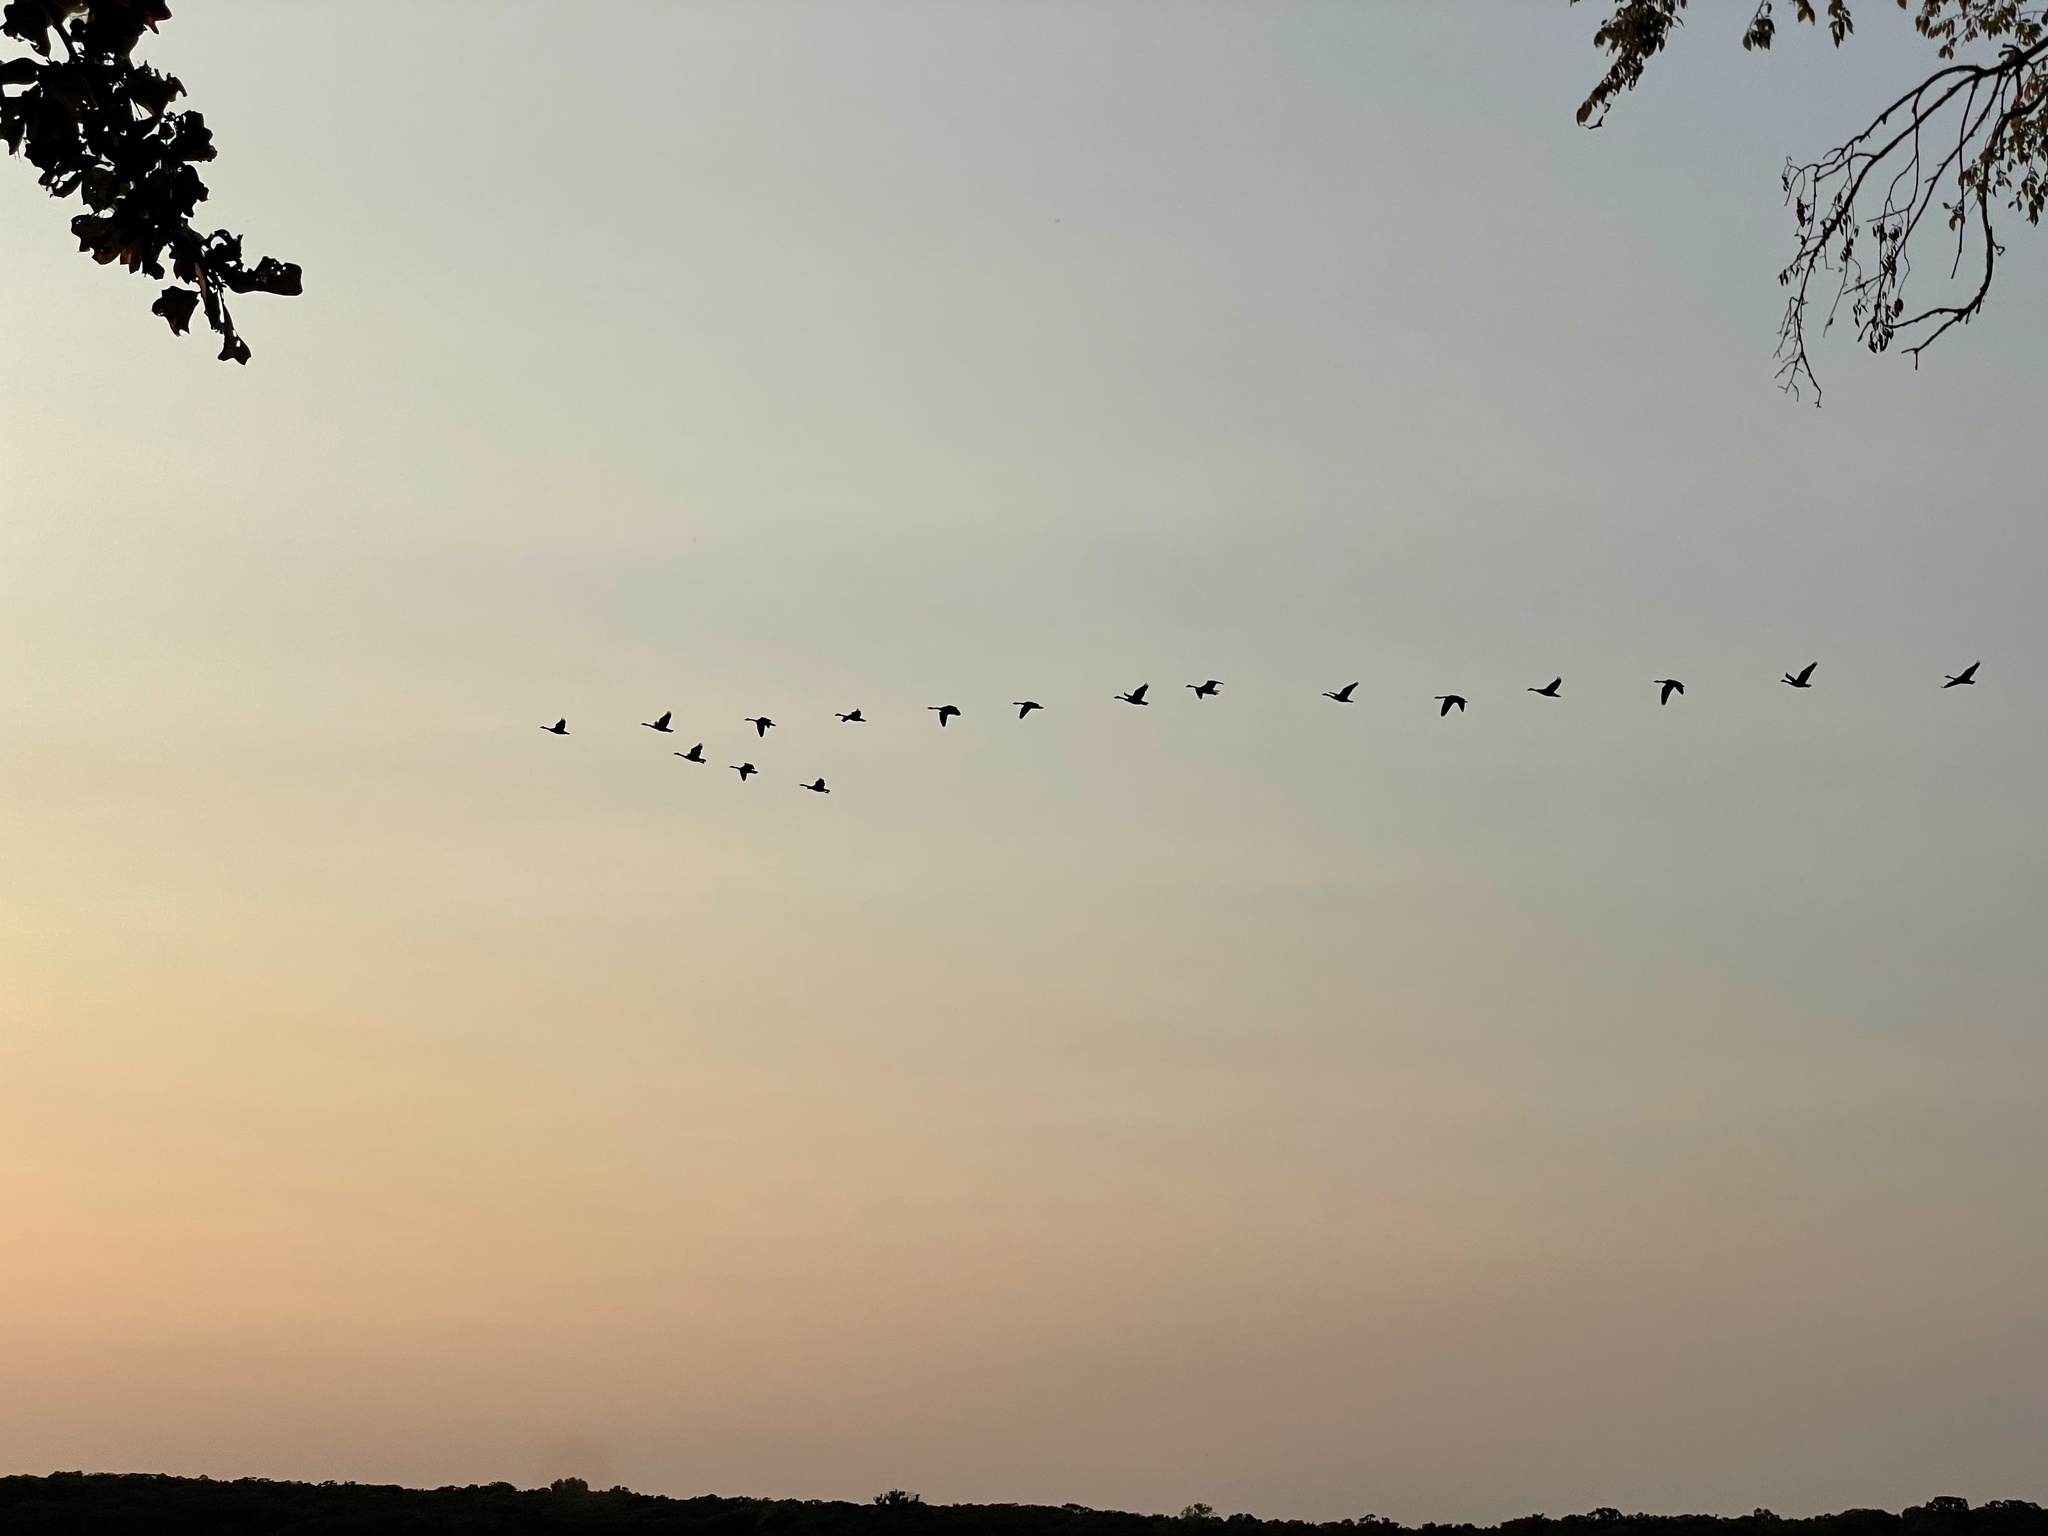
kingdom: Animalia
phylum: Chordata
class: Aves
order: Anseriformes
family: Anatidae
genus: Branta
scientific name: Branta canadensis
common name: Canada goose
